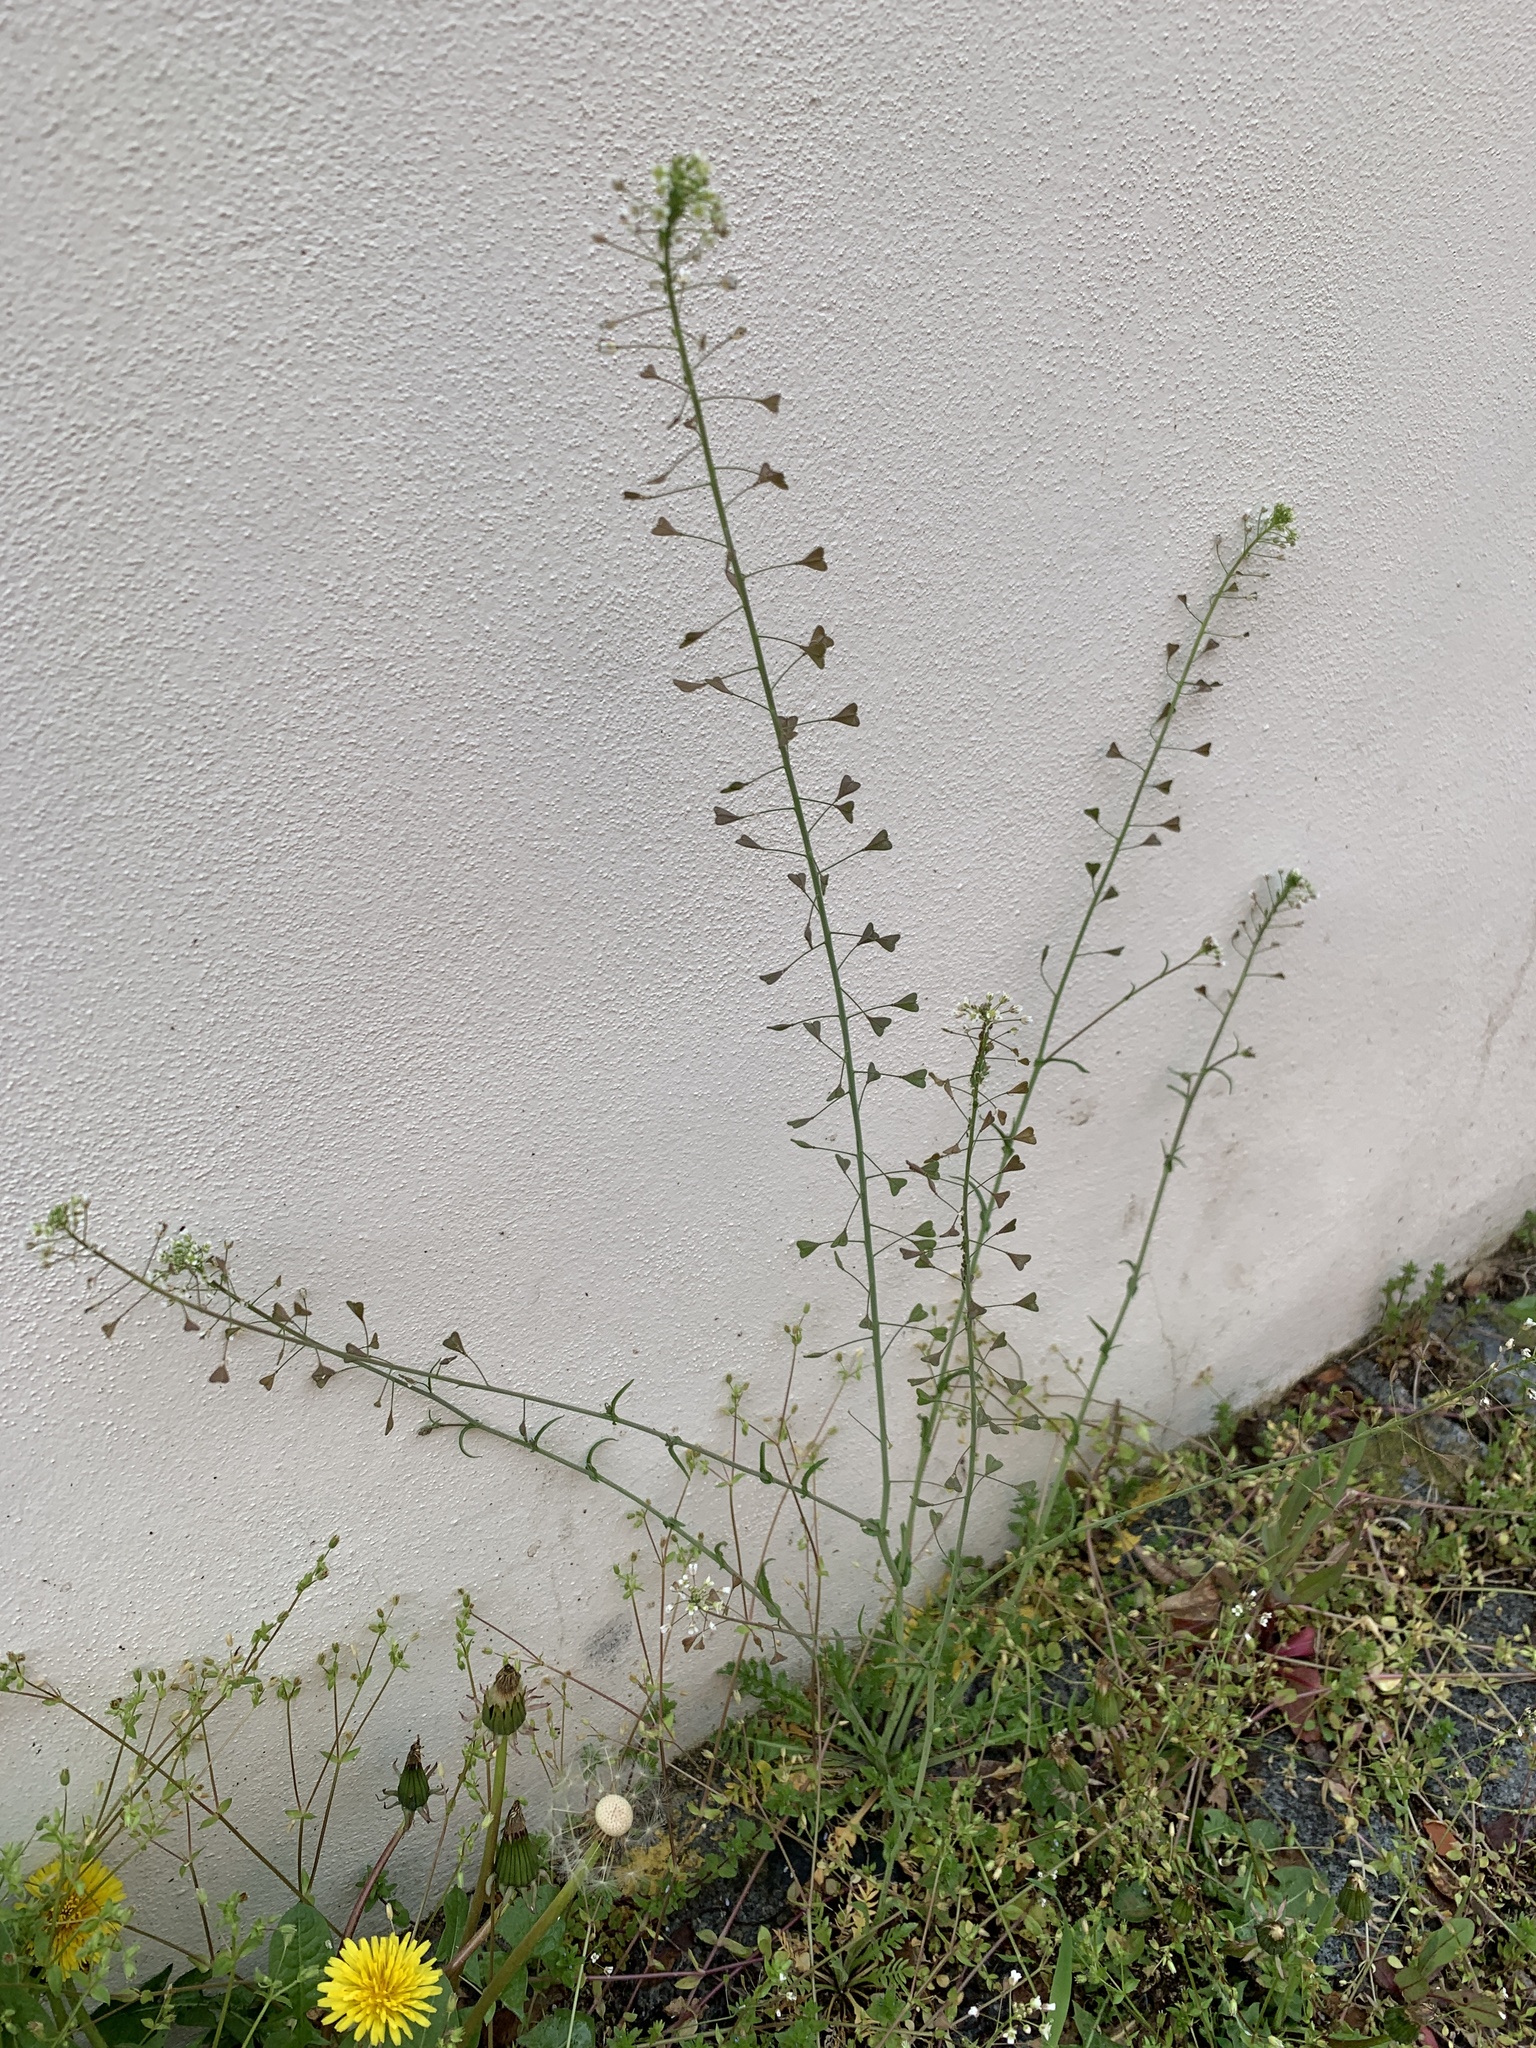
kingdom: Plantae
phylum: Tracheophyta
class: Magnoliopsida
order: Brassicales
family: Brassicaceae
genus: Capsella
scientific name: Capsella bursa-pastoris
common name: Shepherd's purse
